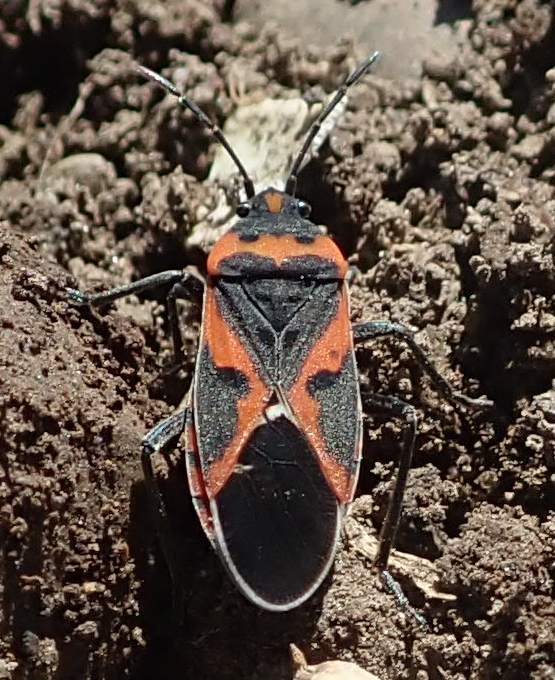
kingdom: Animalia
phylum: Arthropoda
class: Insecta
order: Hemiptera
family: Lygaeidae
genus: Lygaeus
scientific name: Lygaeus kalmii
